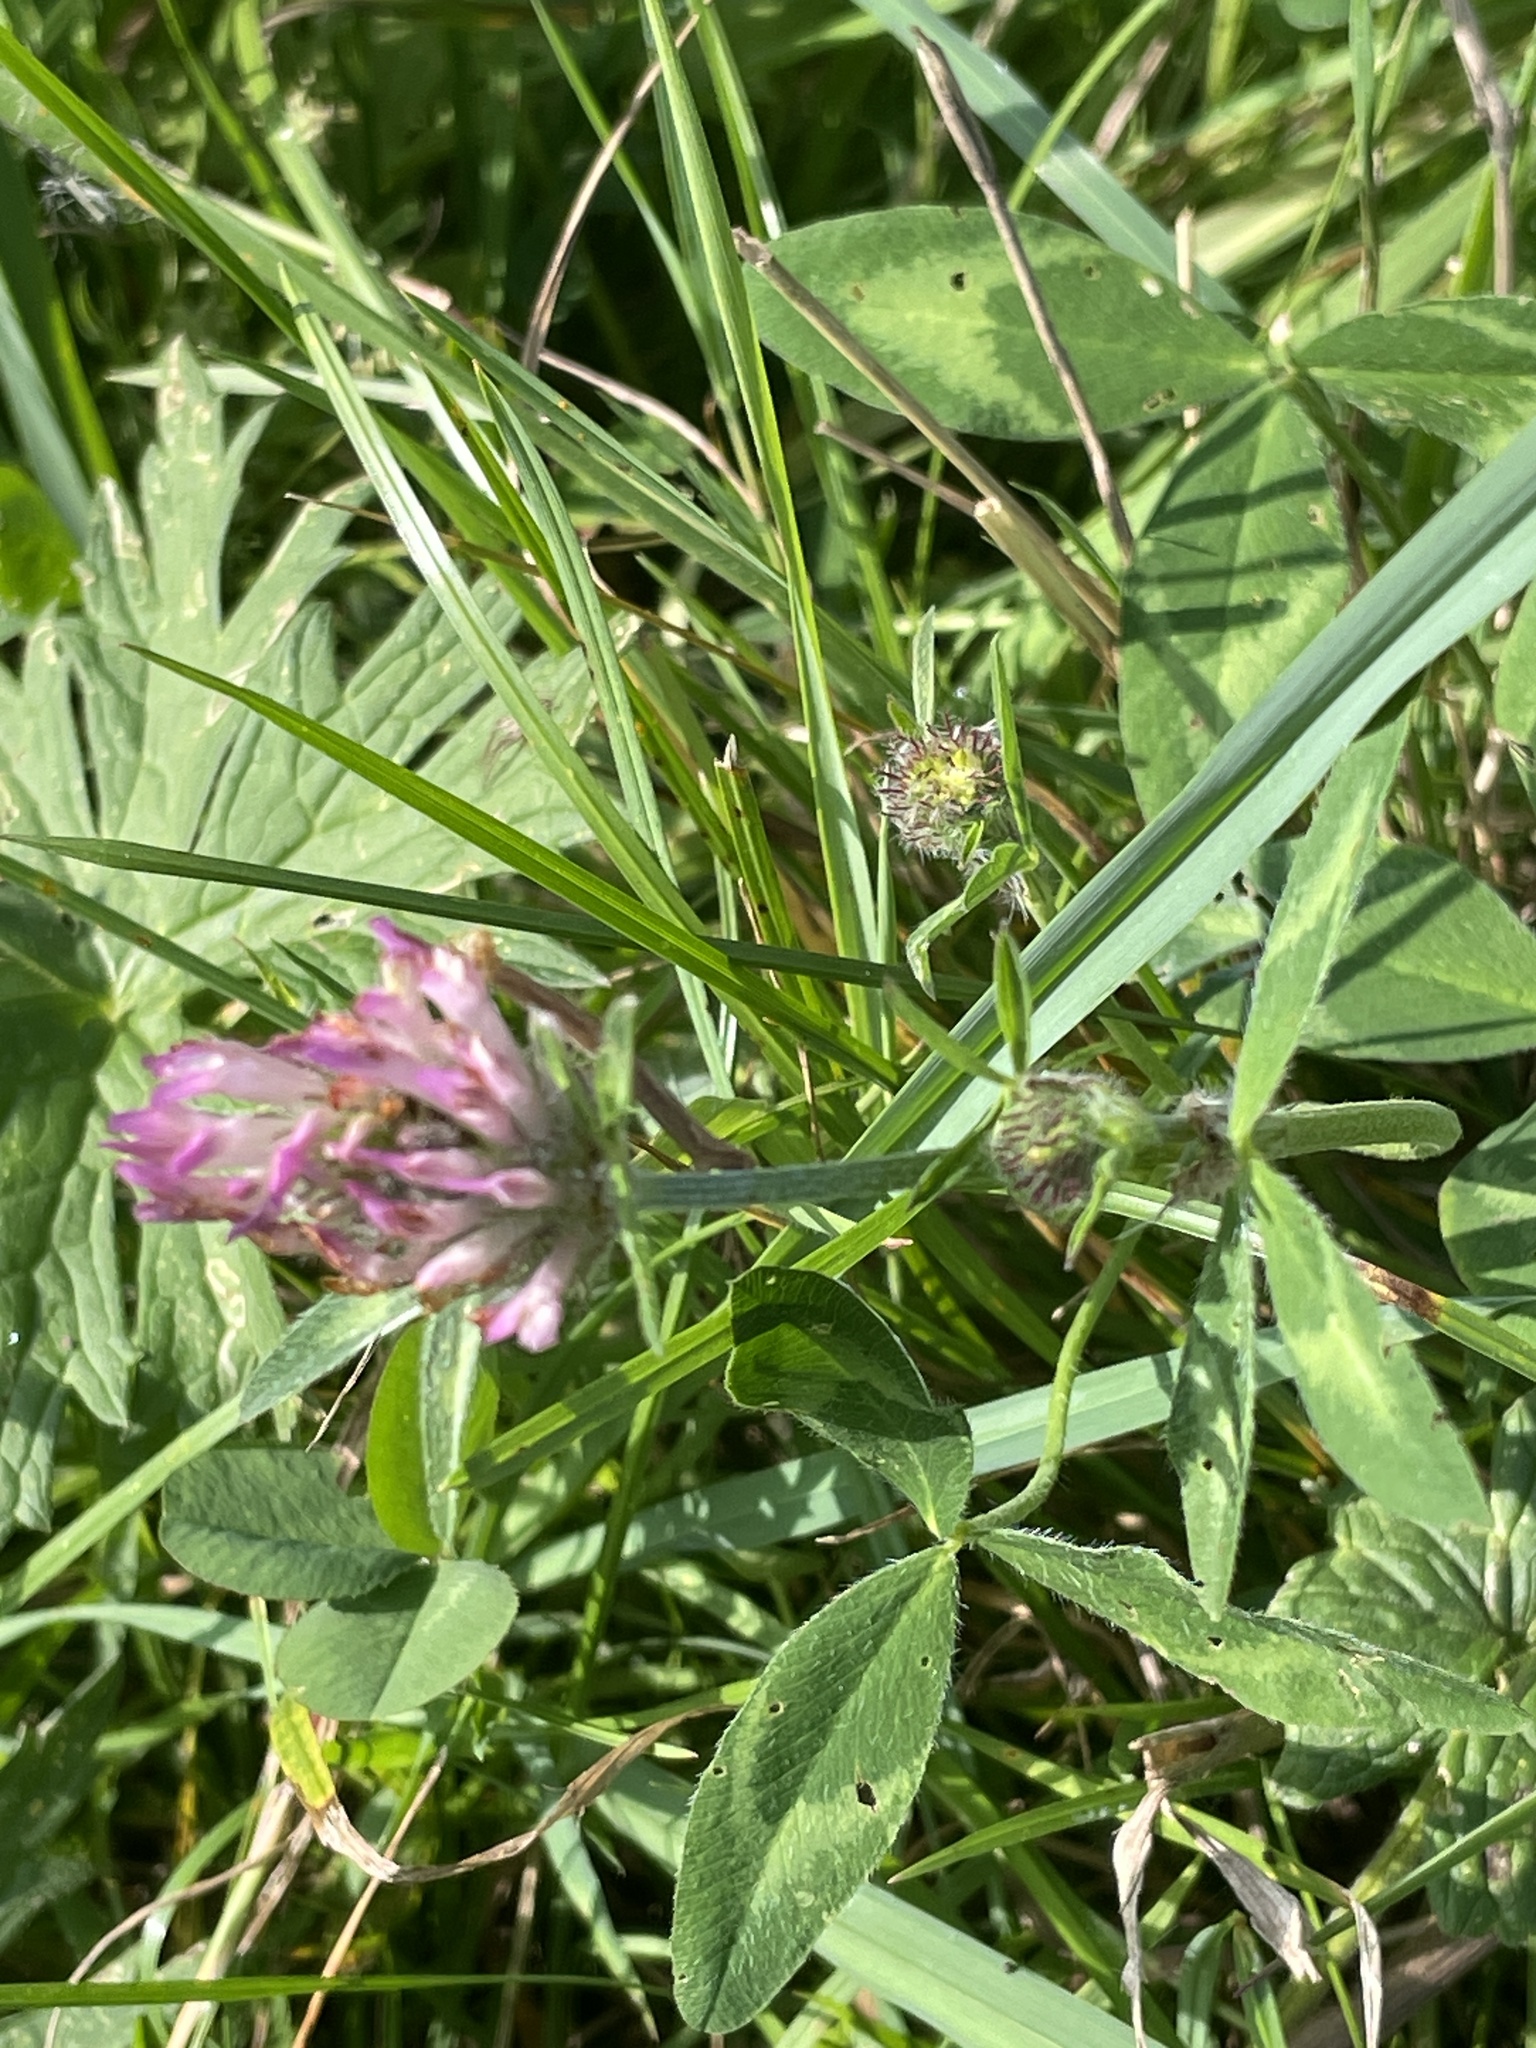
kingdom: Plantae
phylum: Tracheophyta
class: Magnoliopsida
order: Fabales
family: Fabaceae
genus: Trifolium
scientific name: Trifolium pratense
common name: Red clover
